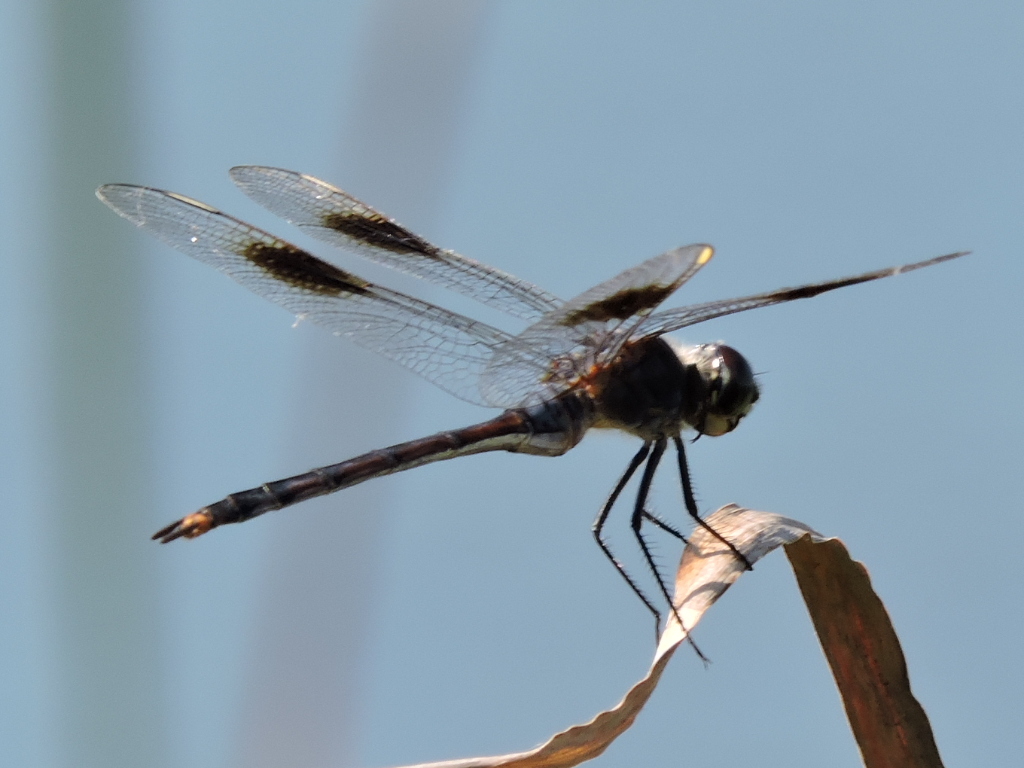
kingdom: Animalia
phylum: Arthropoda
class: Insecta
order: Odonata
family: Libellulidae
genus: Brachymesia
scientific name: Brachymesia gravida
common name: Four-spotted pennant
